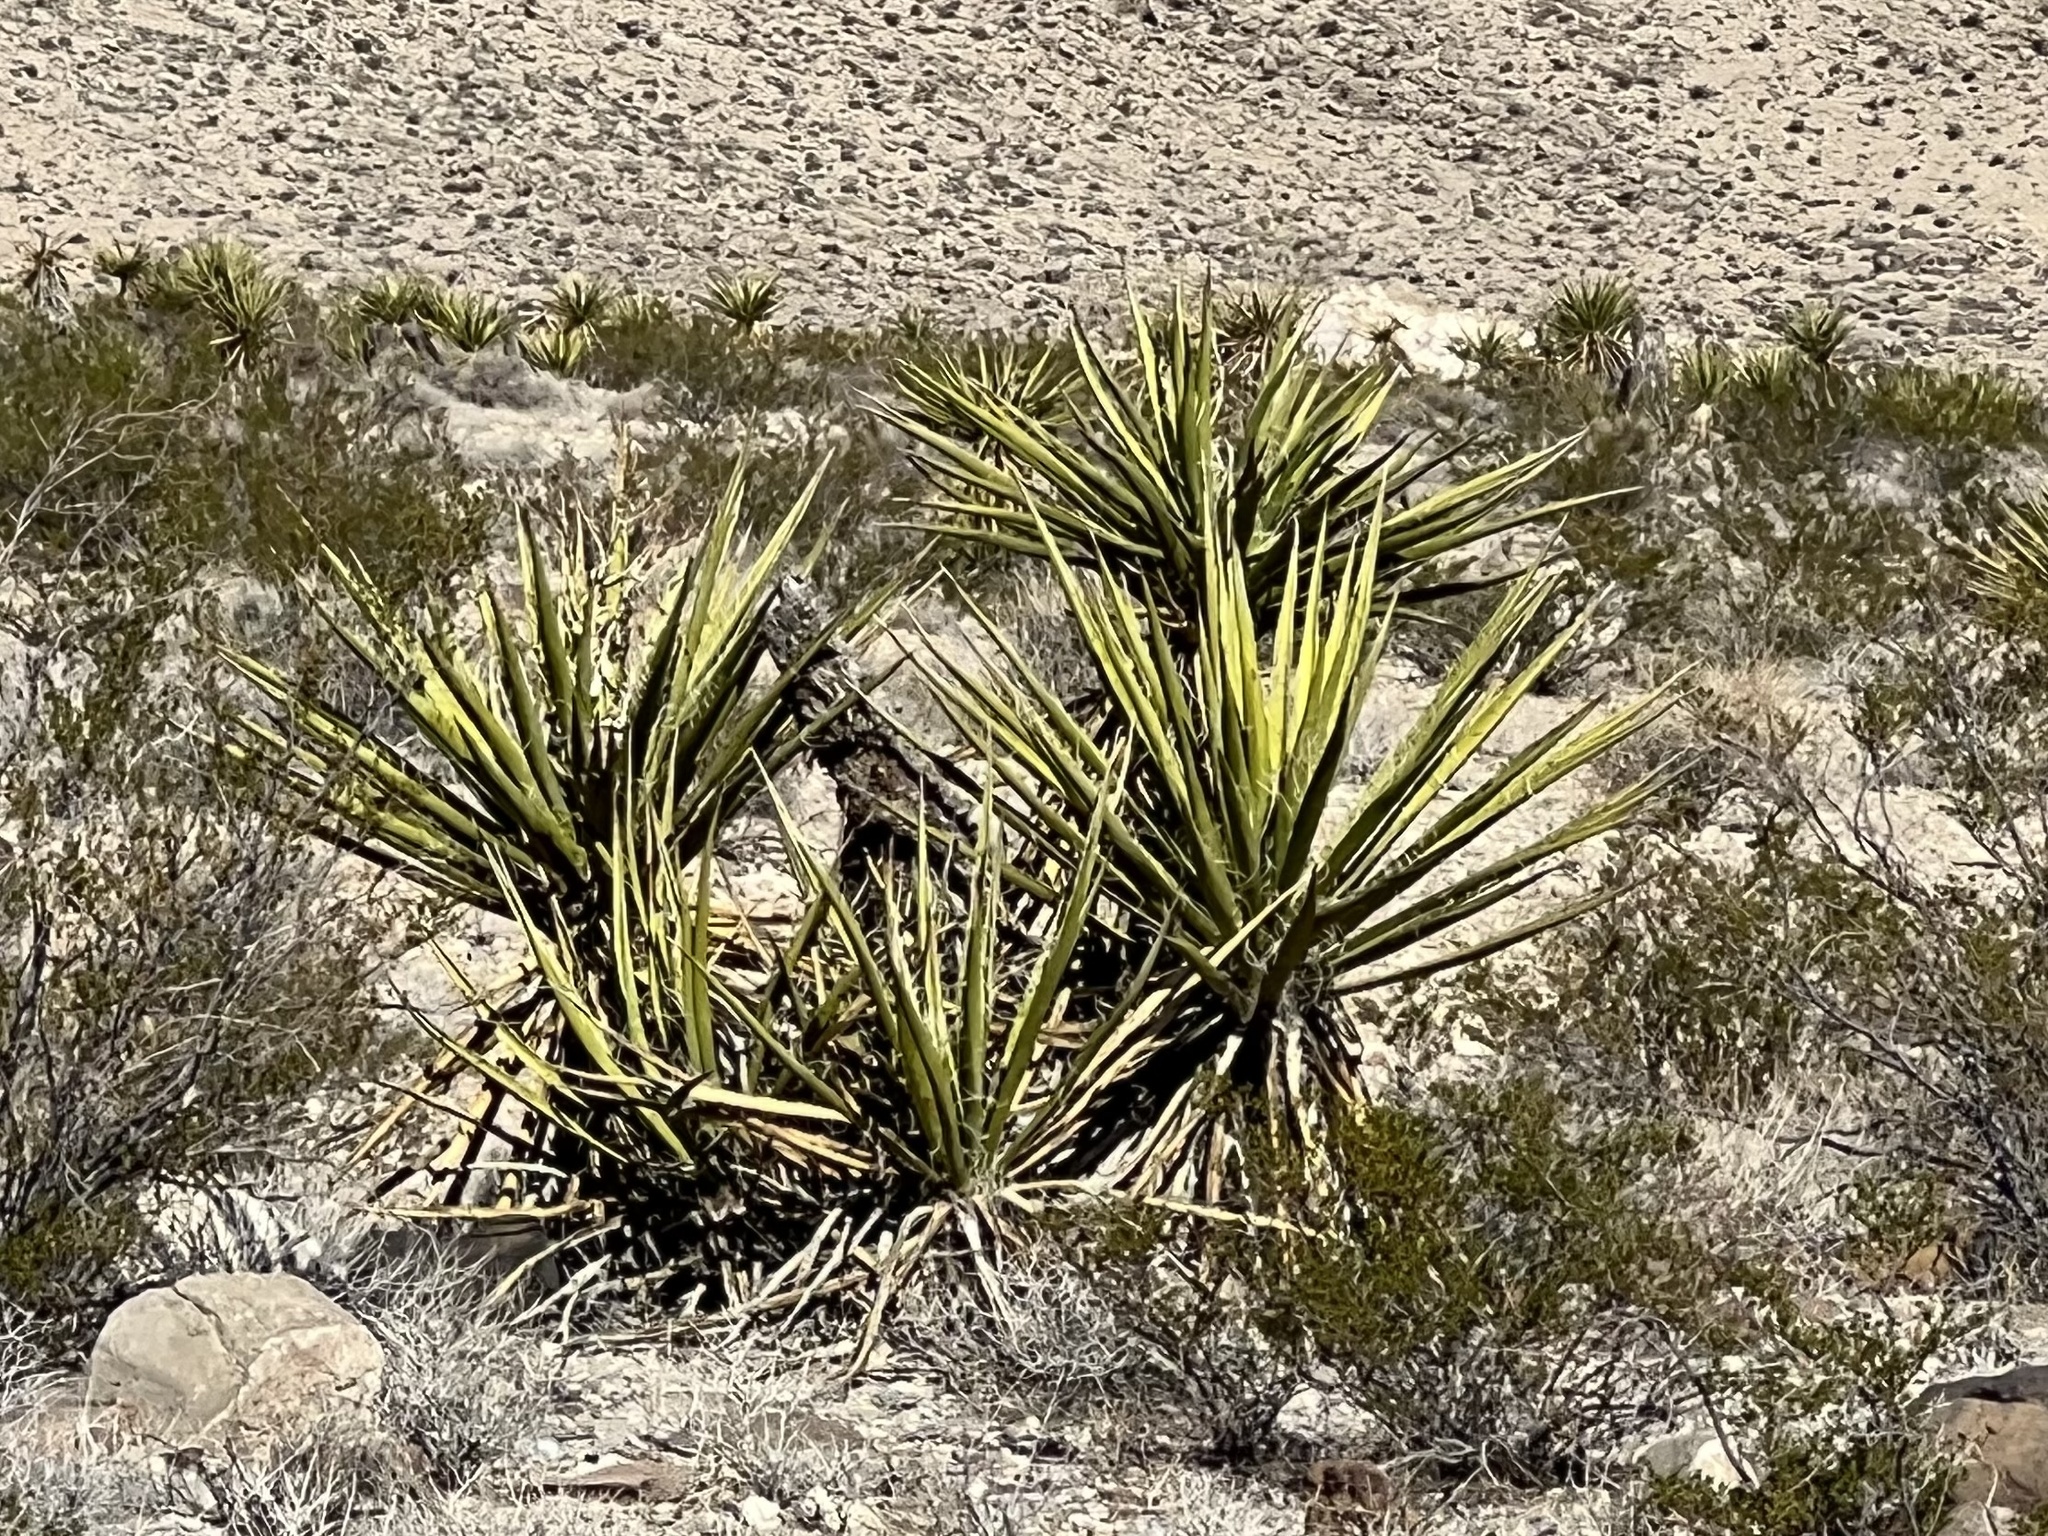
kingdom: Plantae
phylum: Tracheophyta
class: Liliopsida
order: Asparagales
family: Asparagaceae
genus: Yucca
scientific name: Yucca schidigera
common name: Mojave yucca
